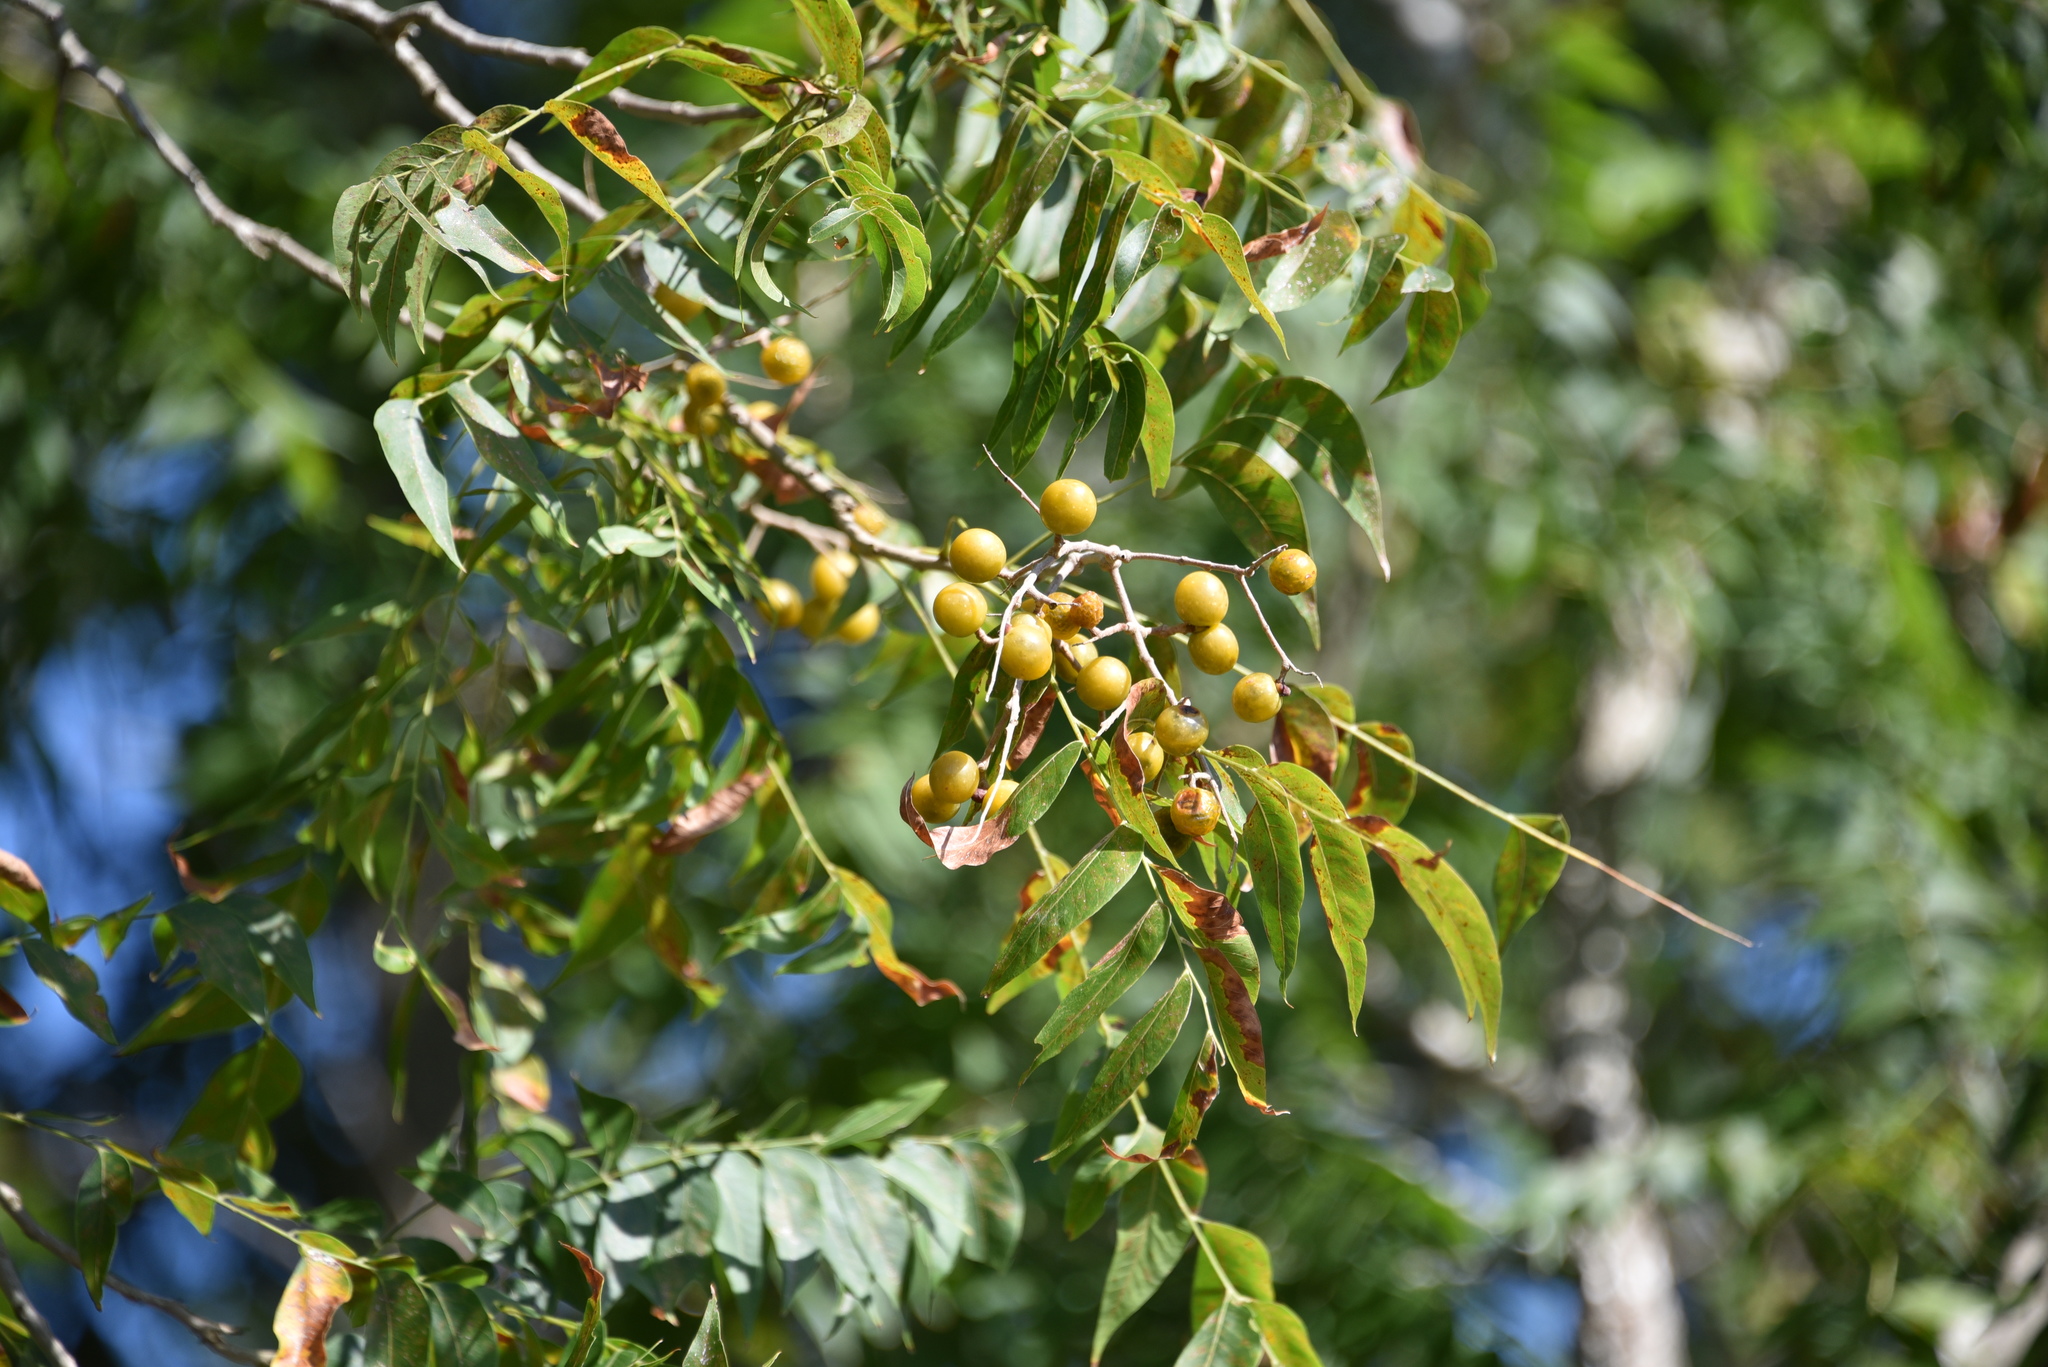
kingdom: Plantae
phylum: Tracheophyta
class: Magnoliopsida
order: Sapindales
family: Sapindaceae
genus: Sapindus
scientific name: Sapindus drummondii
